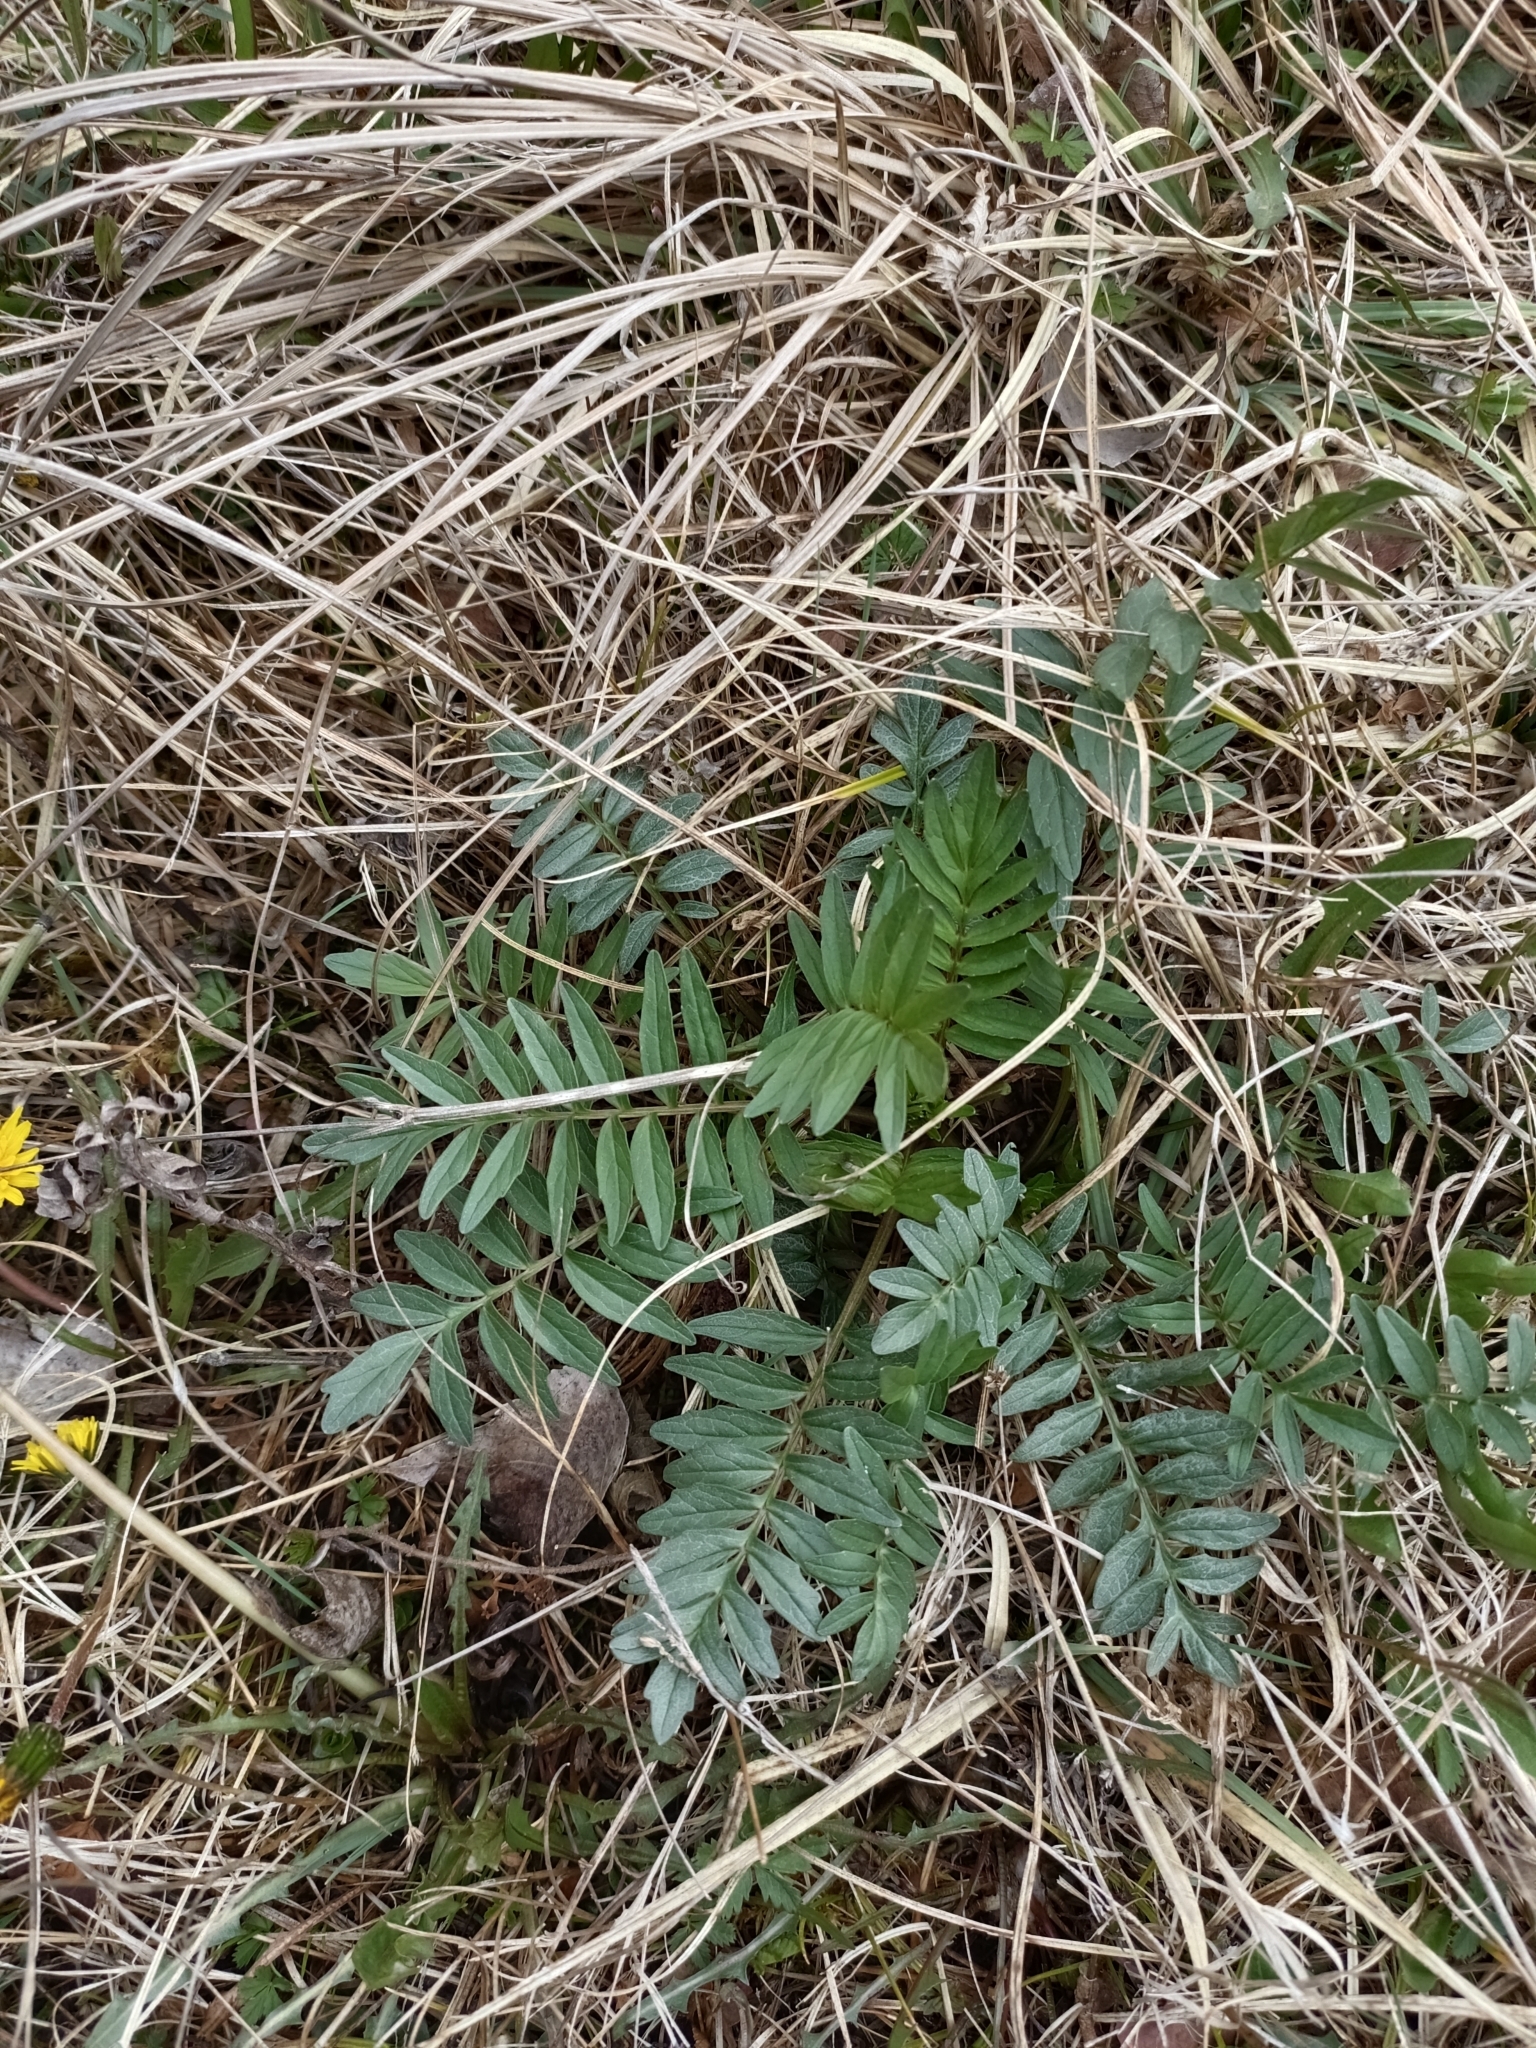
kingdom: Plantae
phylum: Tracheophyta
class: Magnoliopsida
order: Dipsacales
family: Caprifoliaceae
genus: Valeriana
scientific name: Valeriana officinalis
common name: Common valerian
